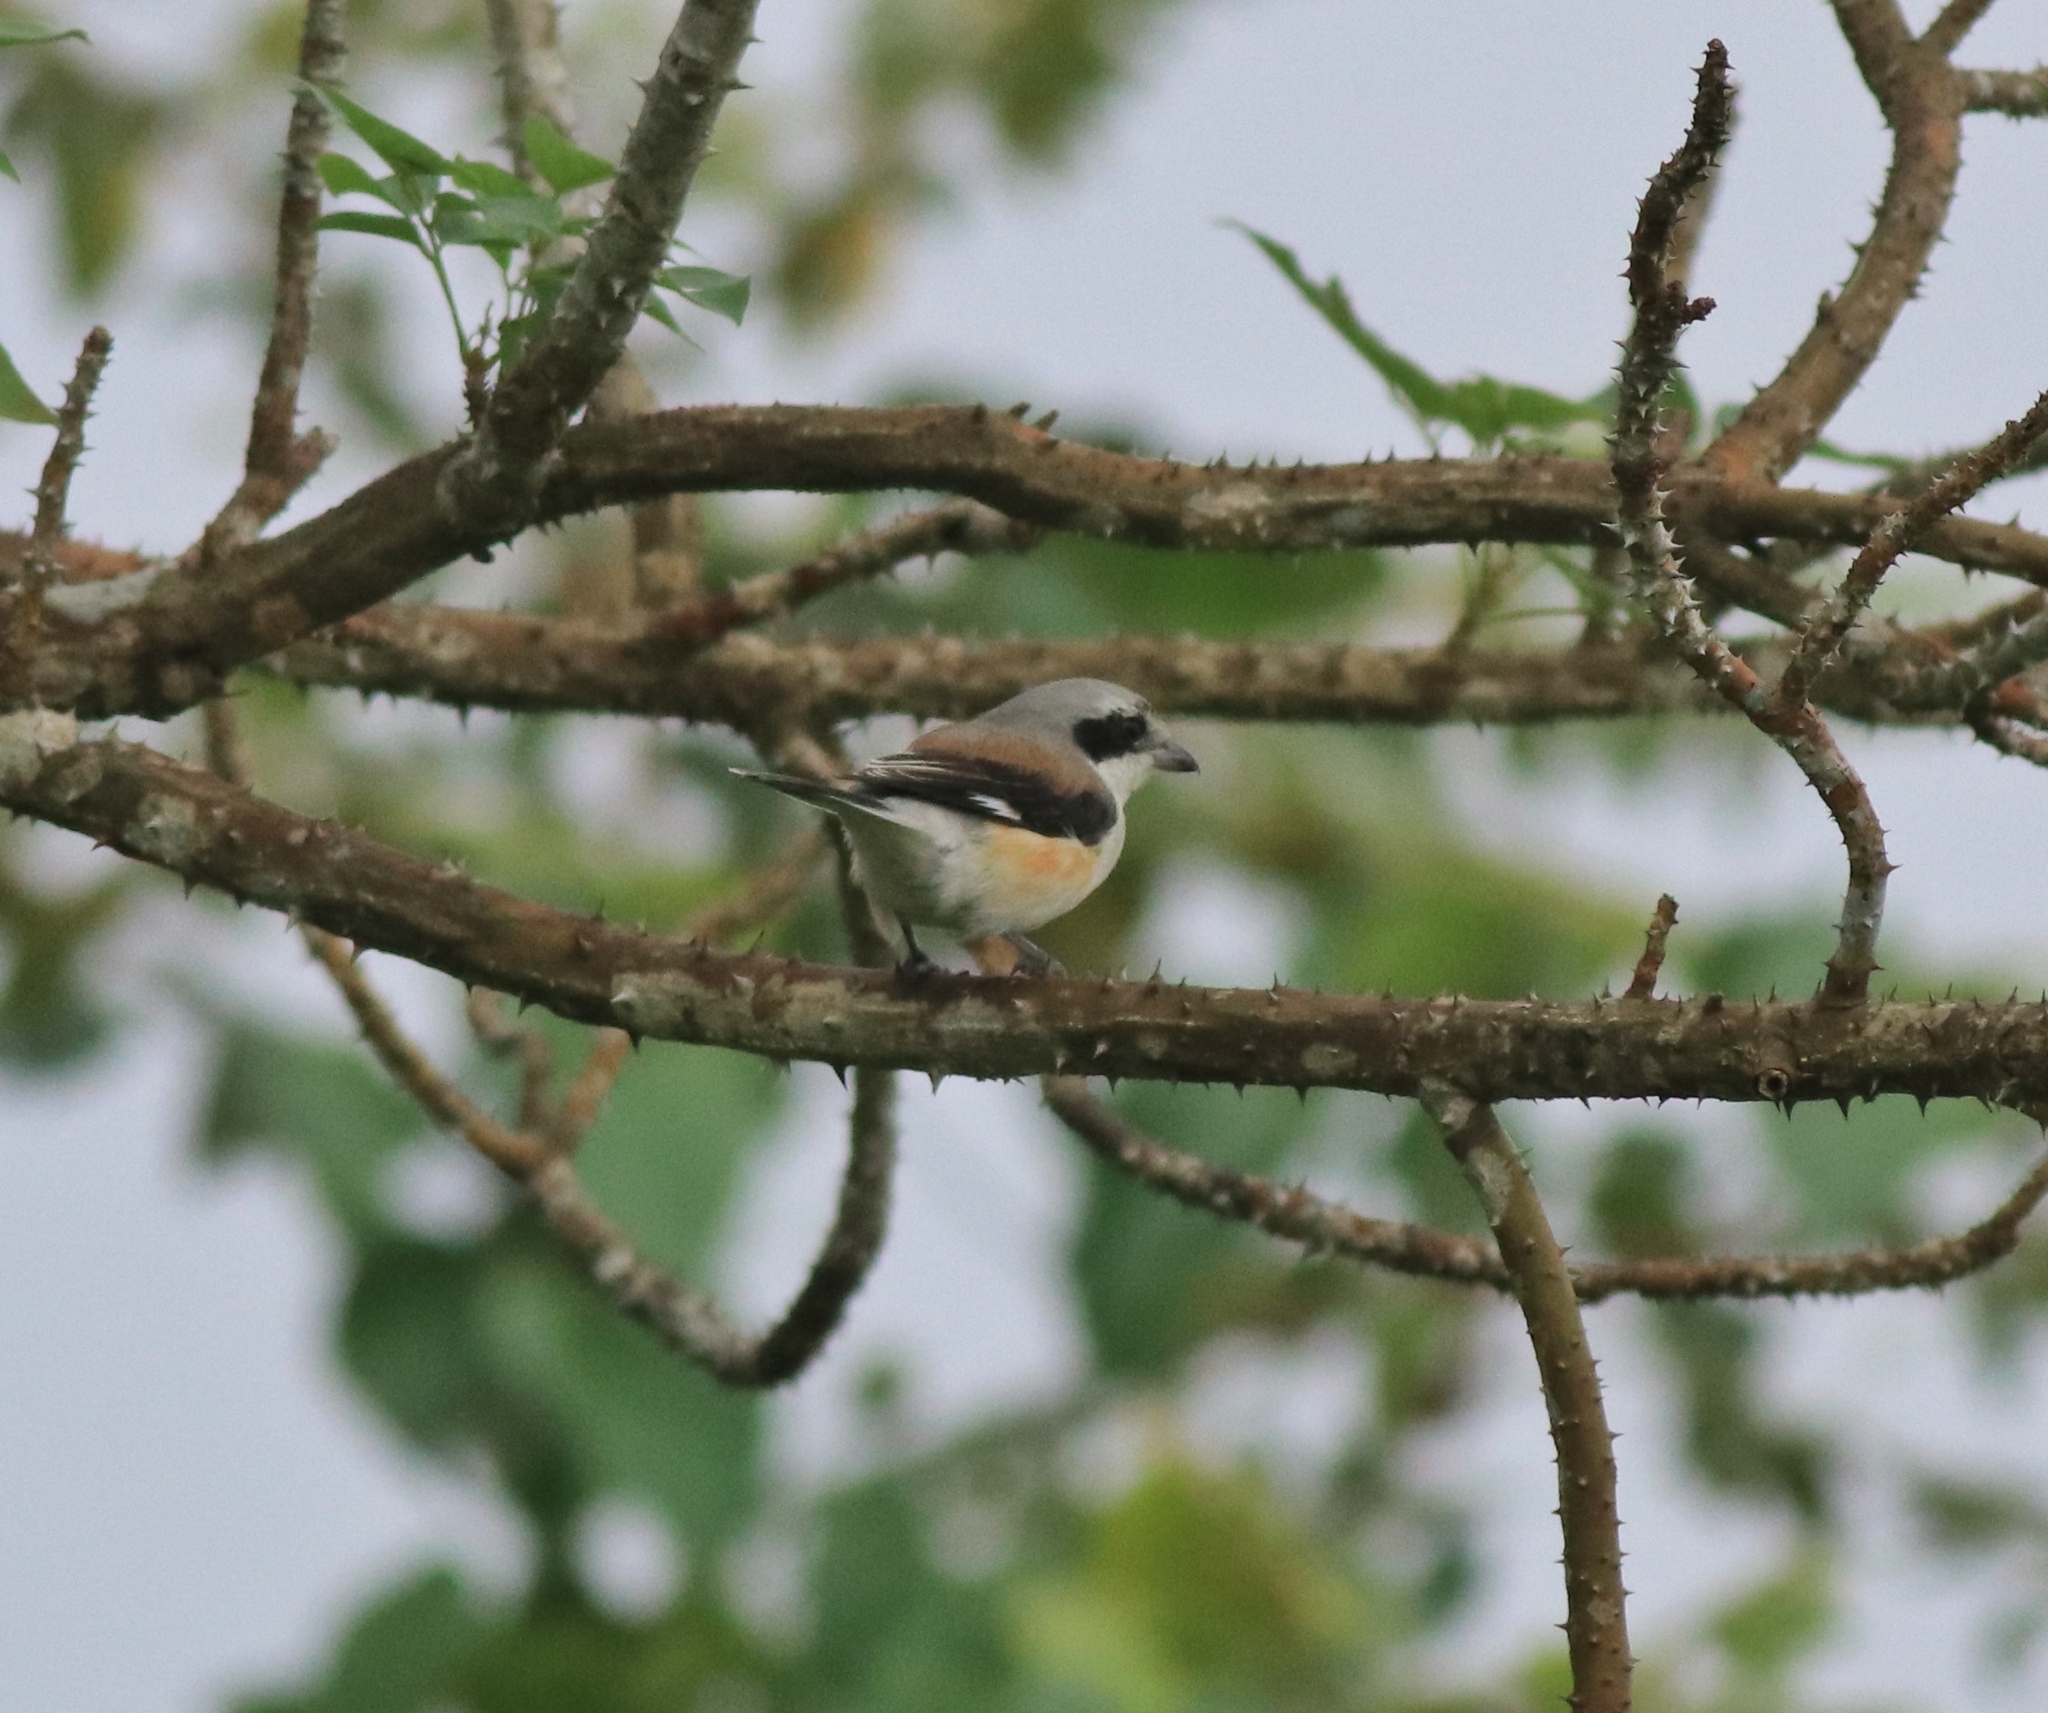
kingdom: Animalia
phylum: Chordata
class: Aves
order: Passeriformes
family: Laniidae
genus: Lanius
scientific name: Lanius vittatus
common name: Bay-backed shrike
